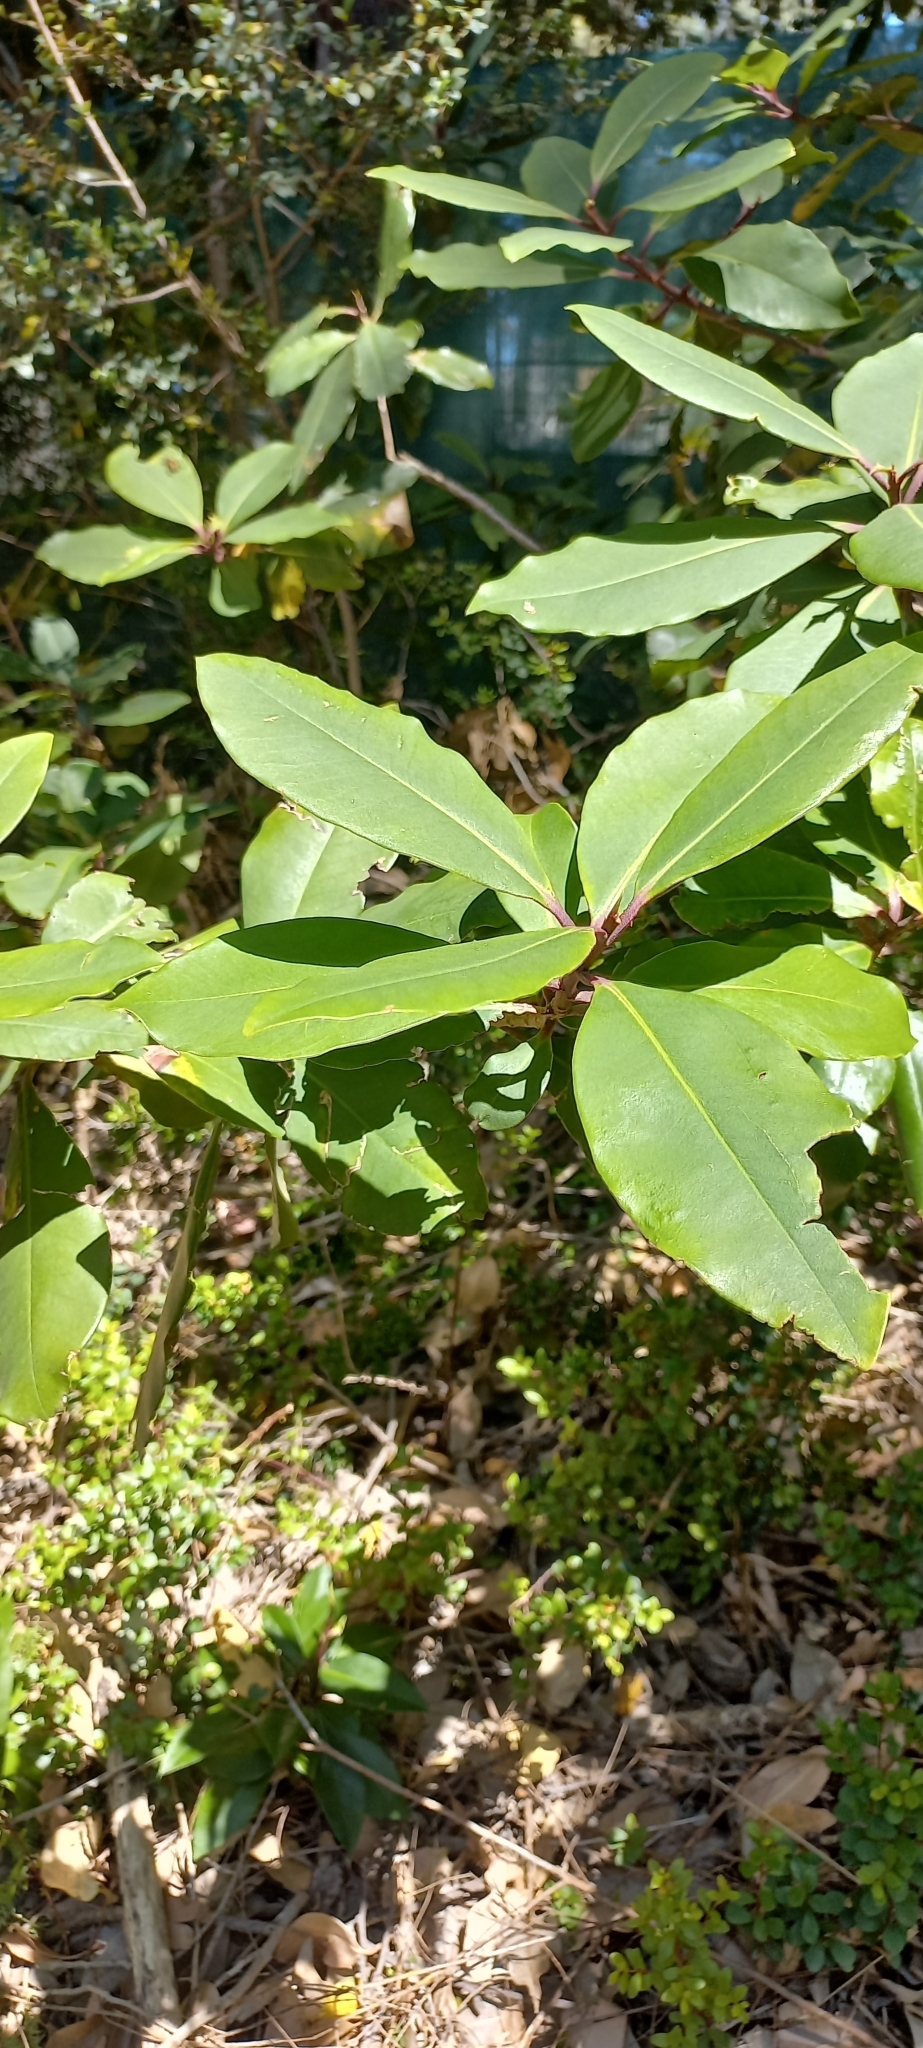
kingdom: Plantae
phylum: Tracheophyta
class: Magnoliopsida
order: Ericales
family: Primulaceae
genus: Myrsine
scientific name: Myrsine melanophloeos
